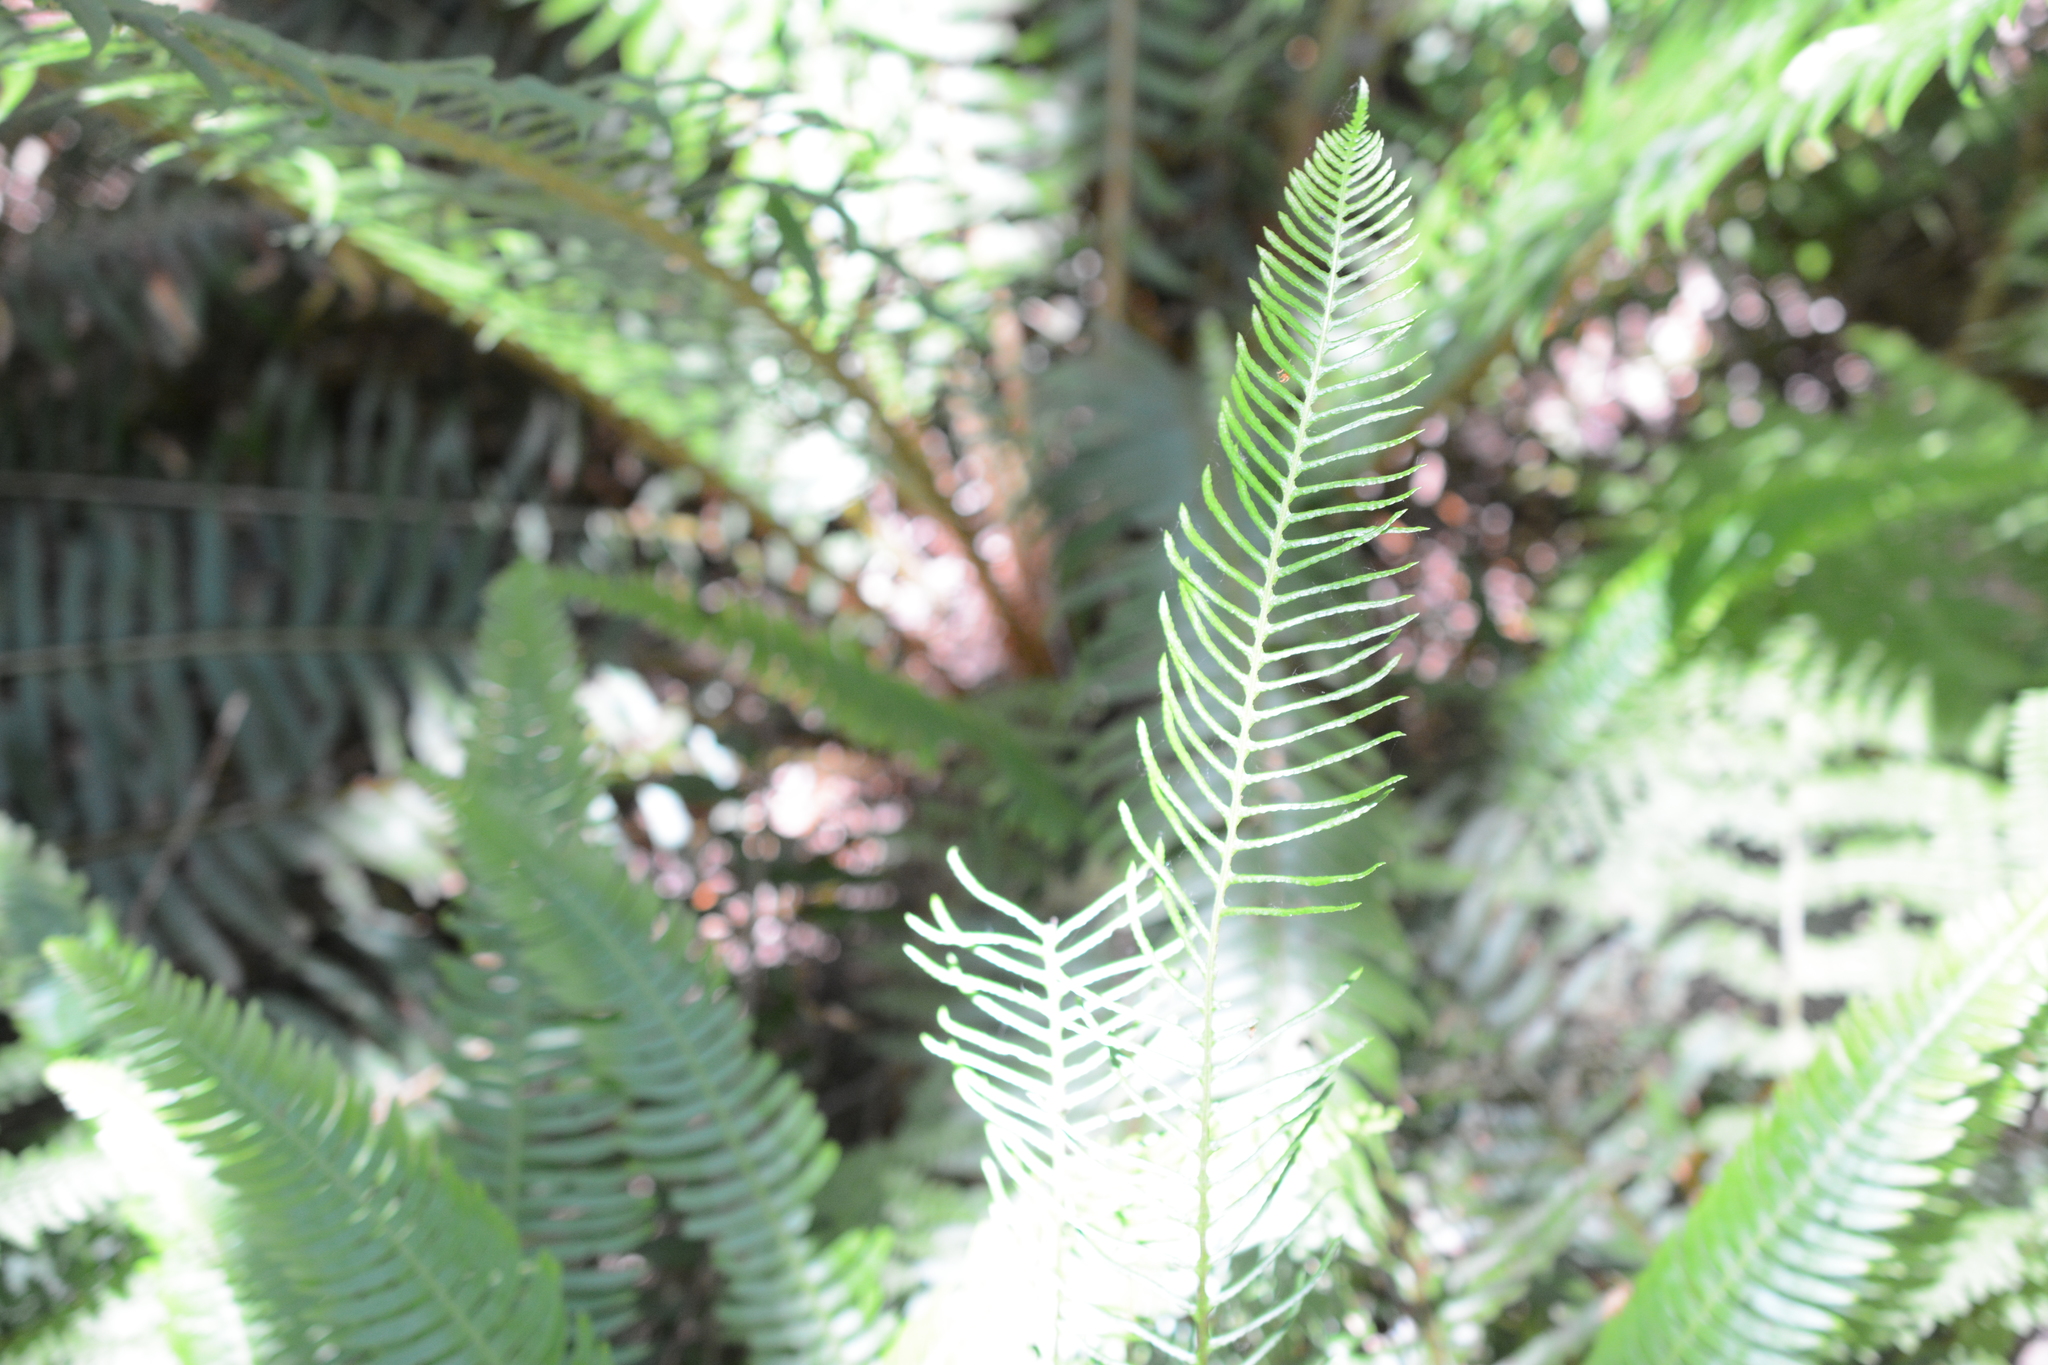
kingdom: Plantae
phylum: Tracheophyta
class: Polypodiopsida
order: Polypodiales
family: Blechnaceae
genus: Struthiopteris
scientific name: Struthiopteris spicant
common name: Deer fern
